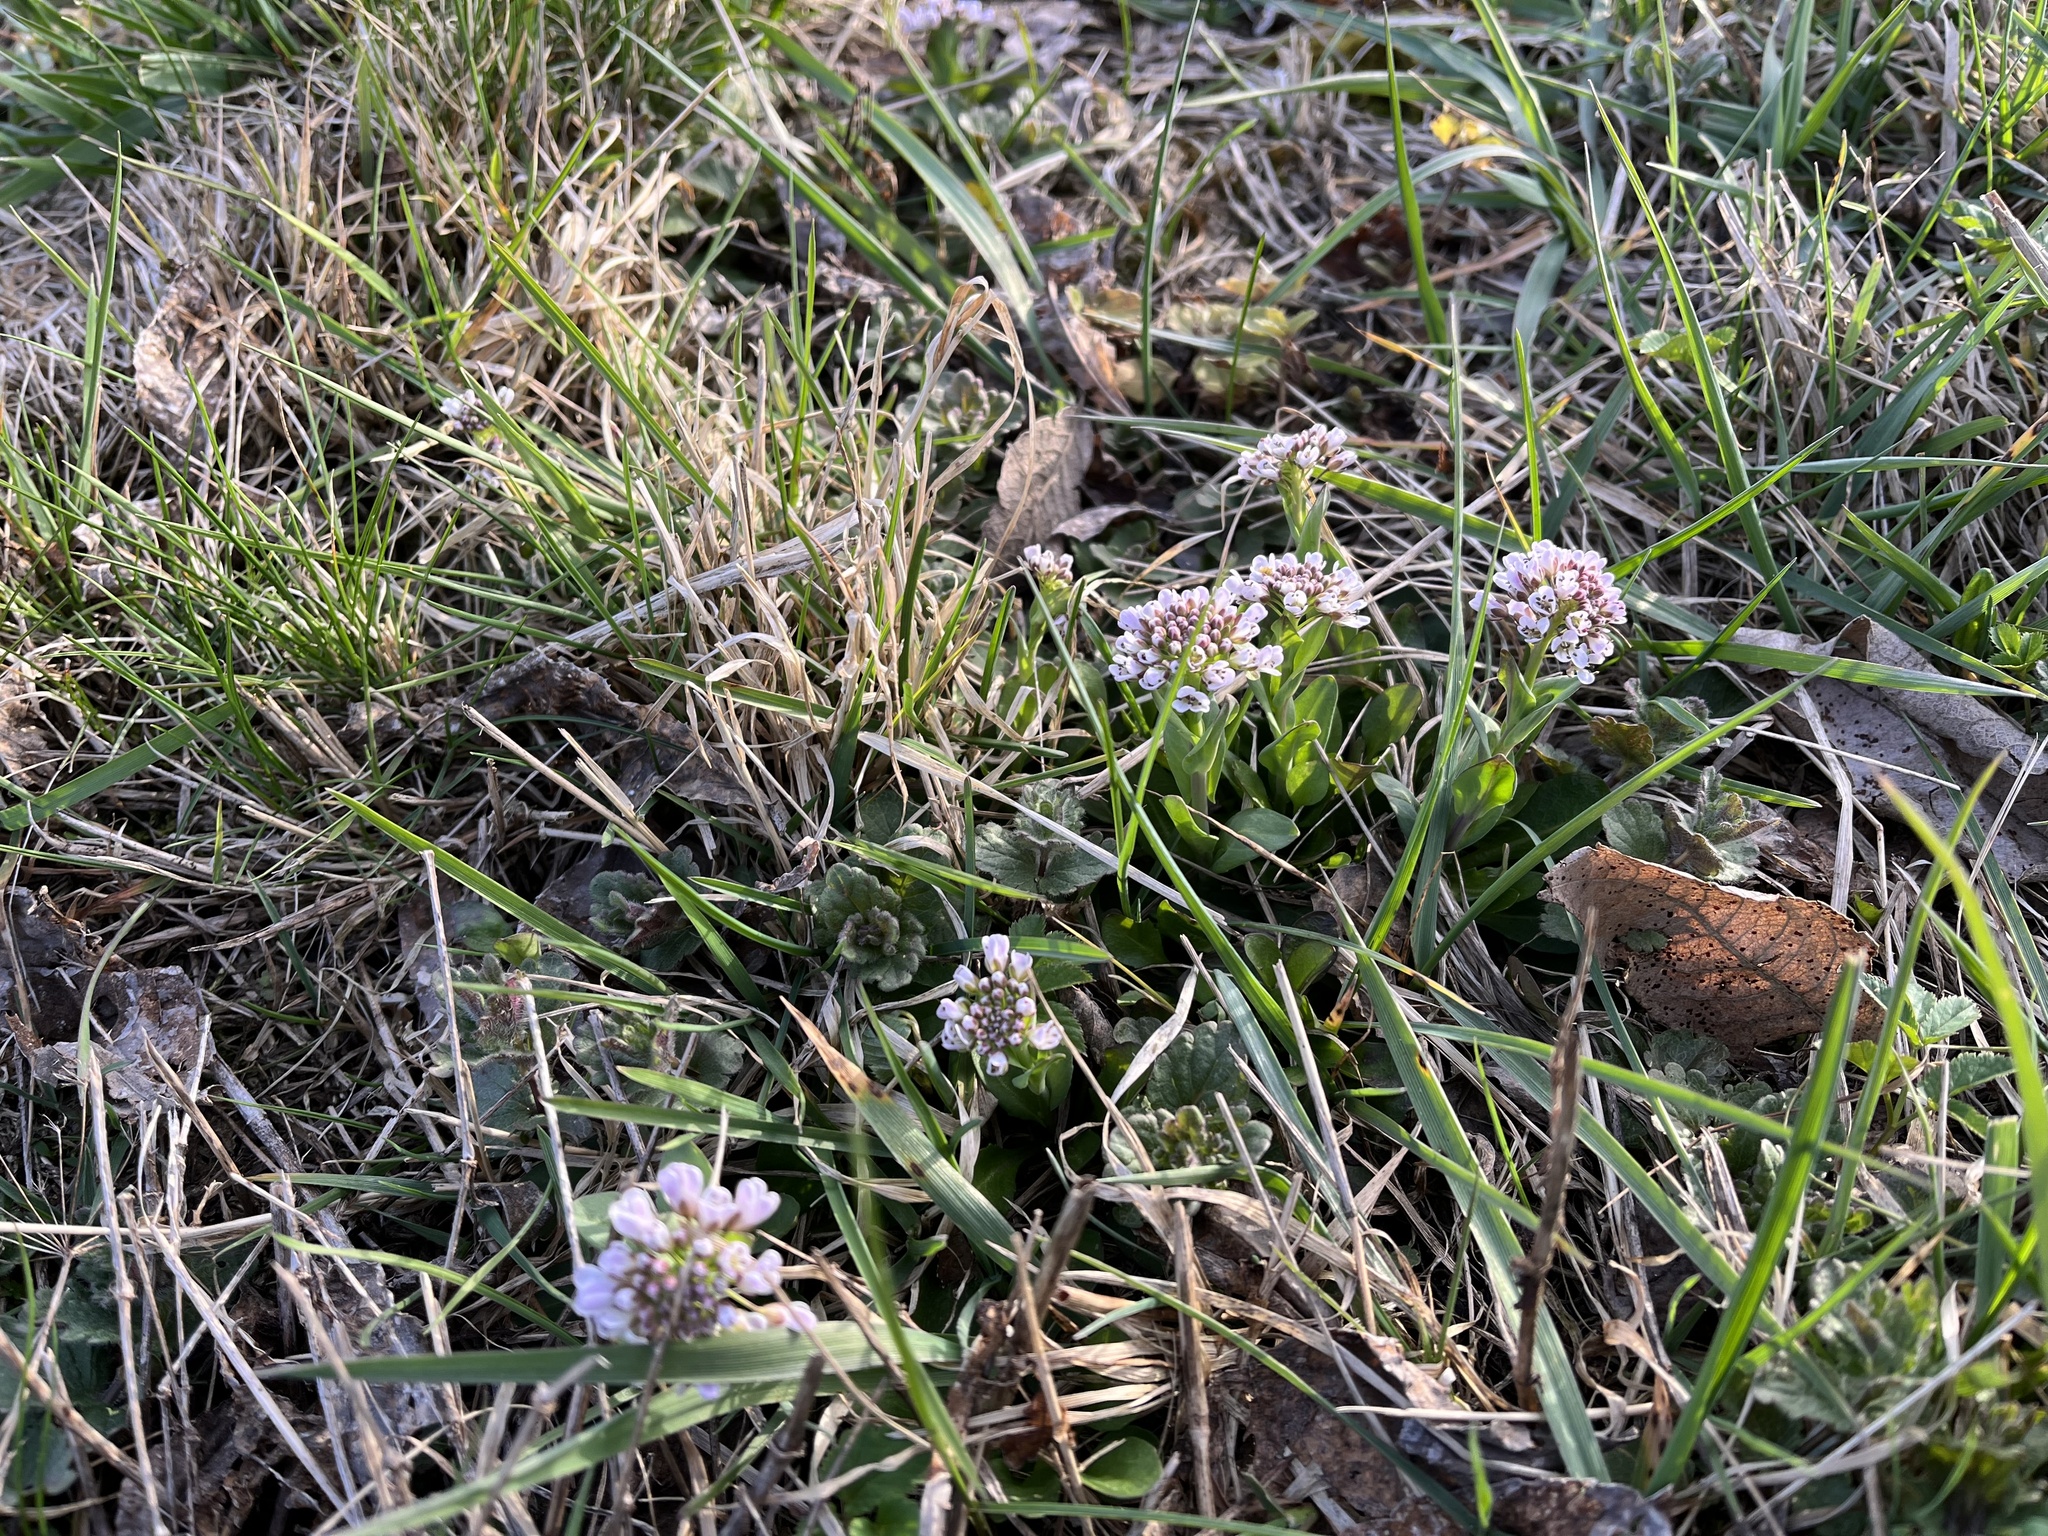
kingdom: Plantae
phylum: Tracheophyta
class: Magnoliopsida
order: Brassicales
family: Brassicaceae
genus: Noccaea
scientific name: Noccaea caerulescens
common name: Alpine pennycress
